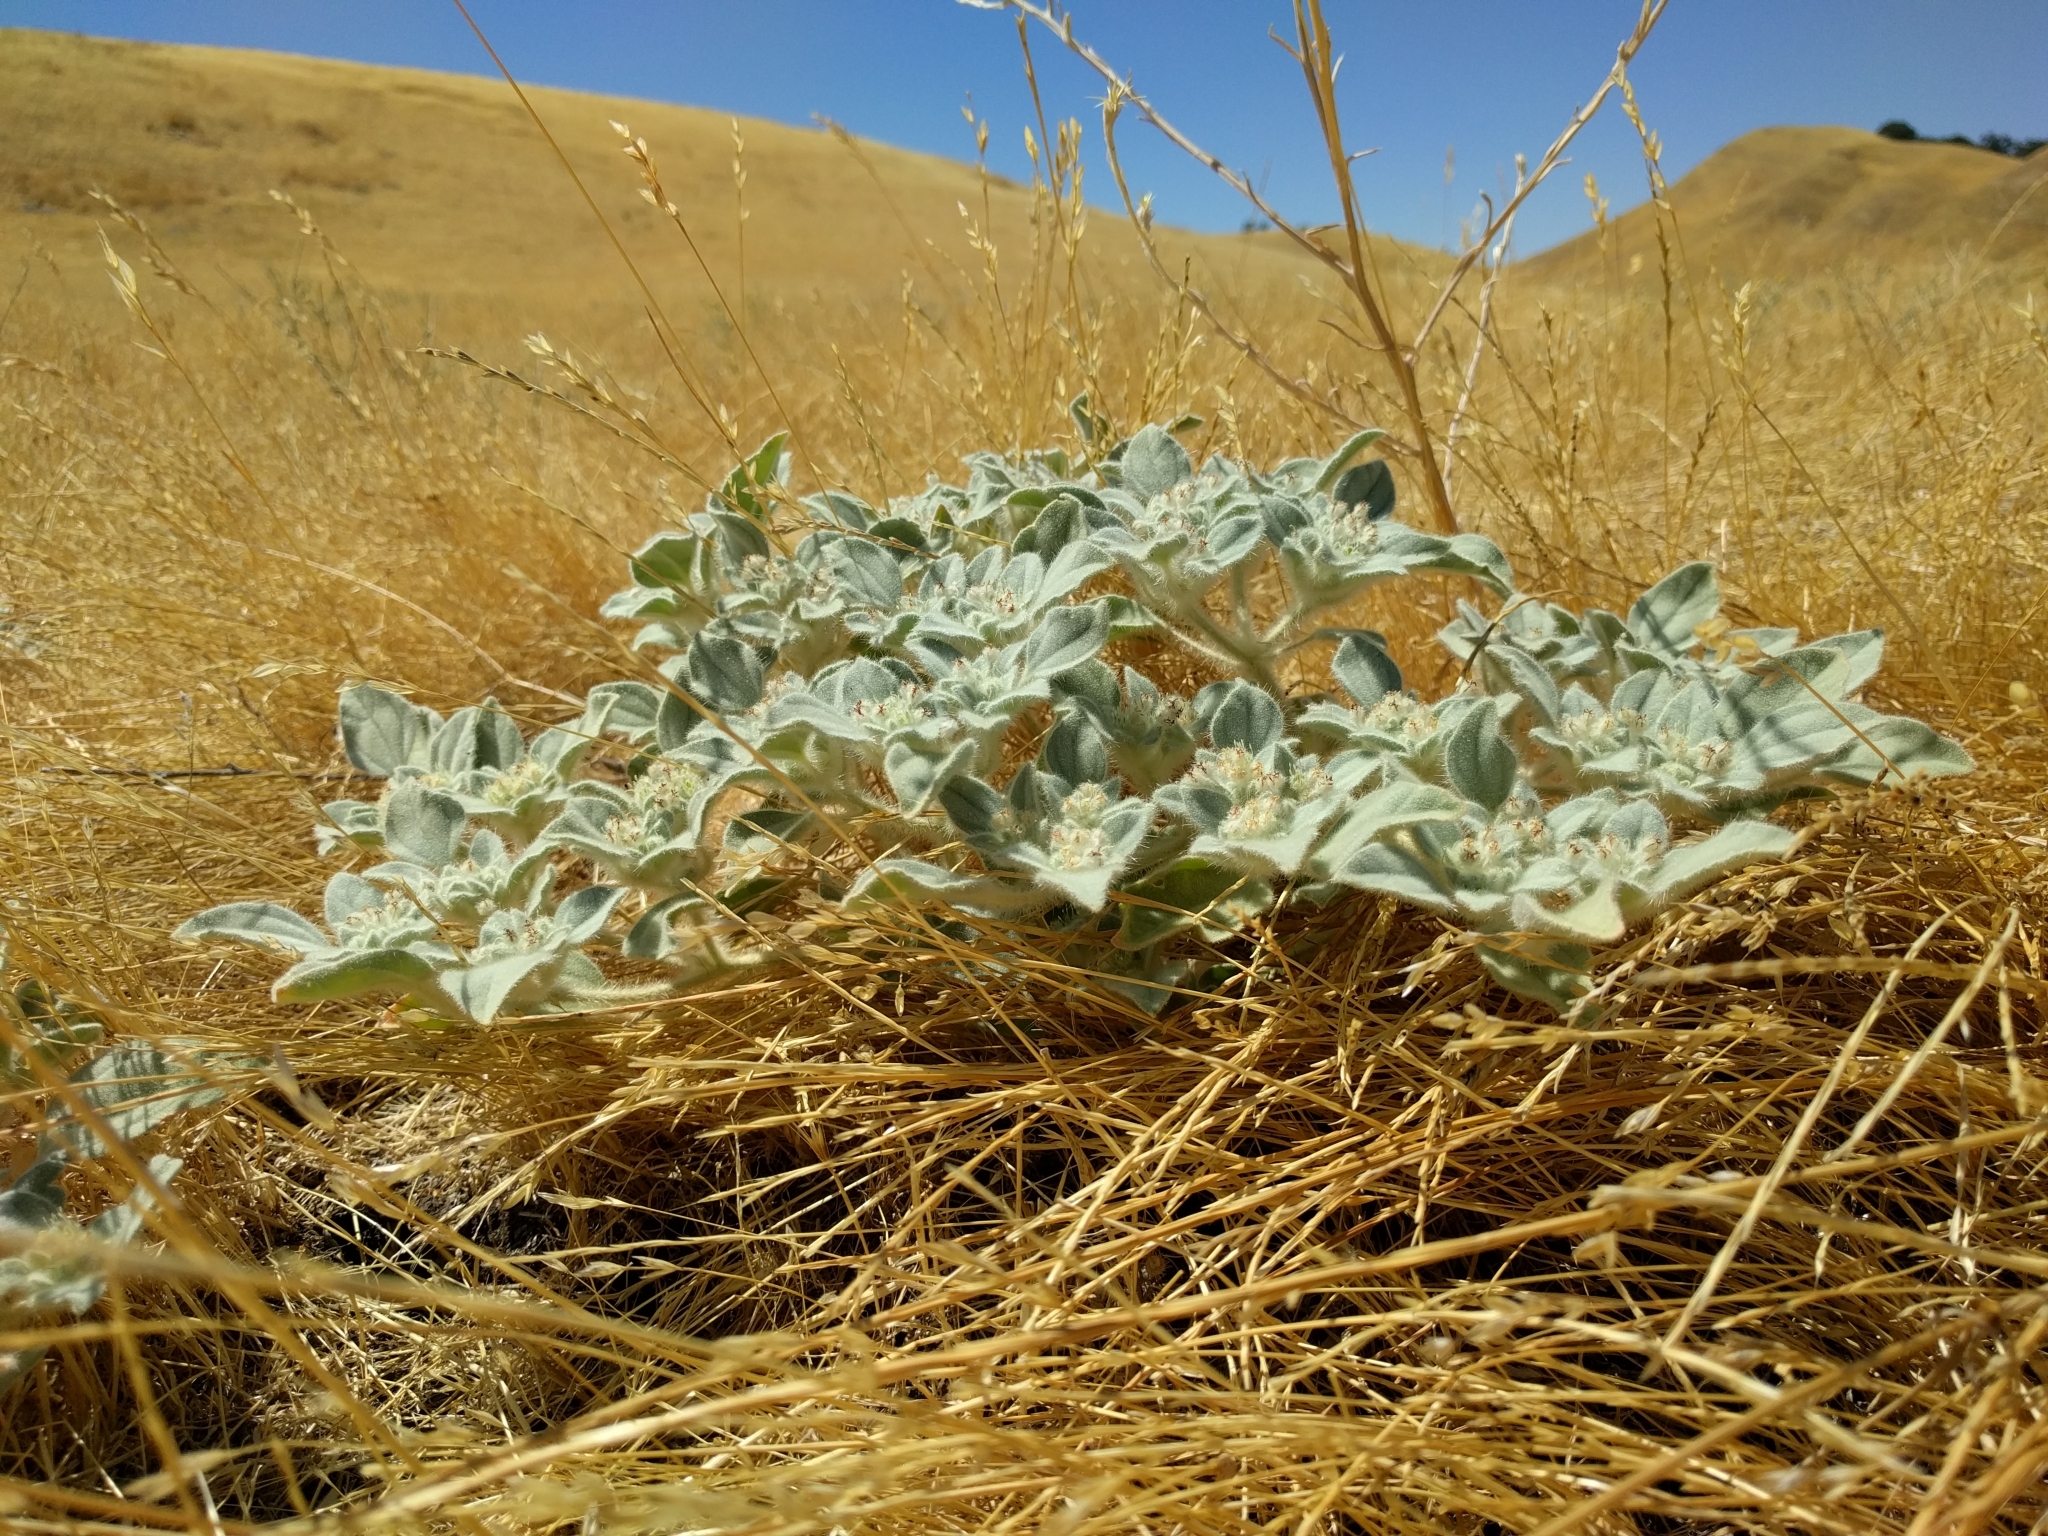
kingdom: Plantae
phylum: Tracheophyta
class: Magnoliopsida
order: Malpighiales
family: Euphorbiaceae
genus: Croton
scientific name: Croton setiger
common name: Dove weed
